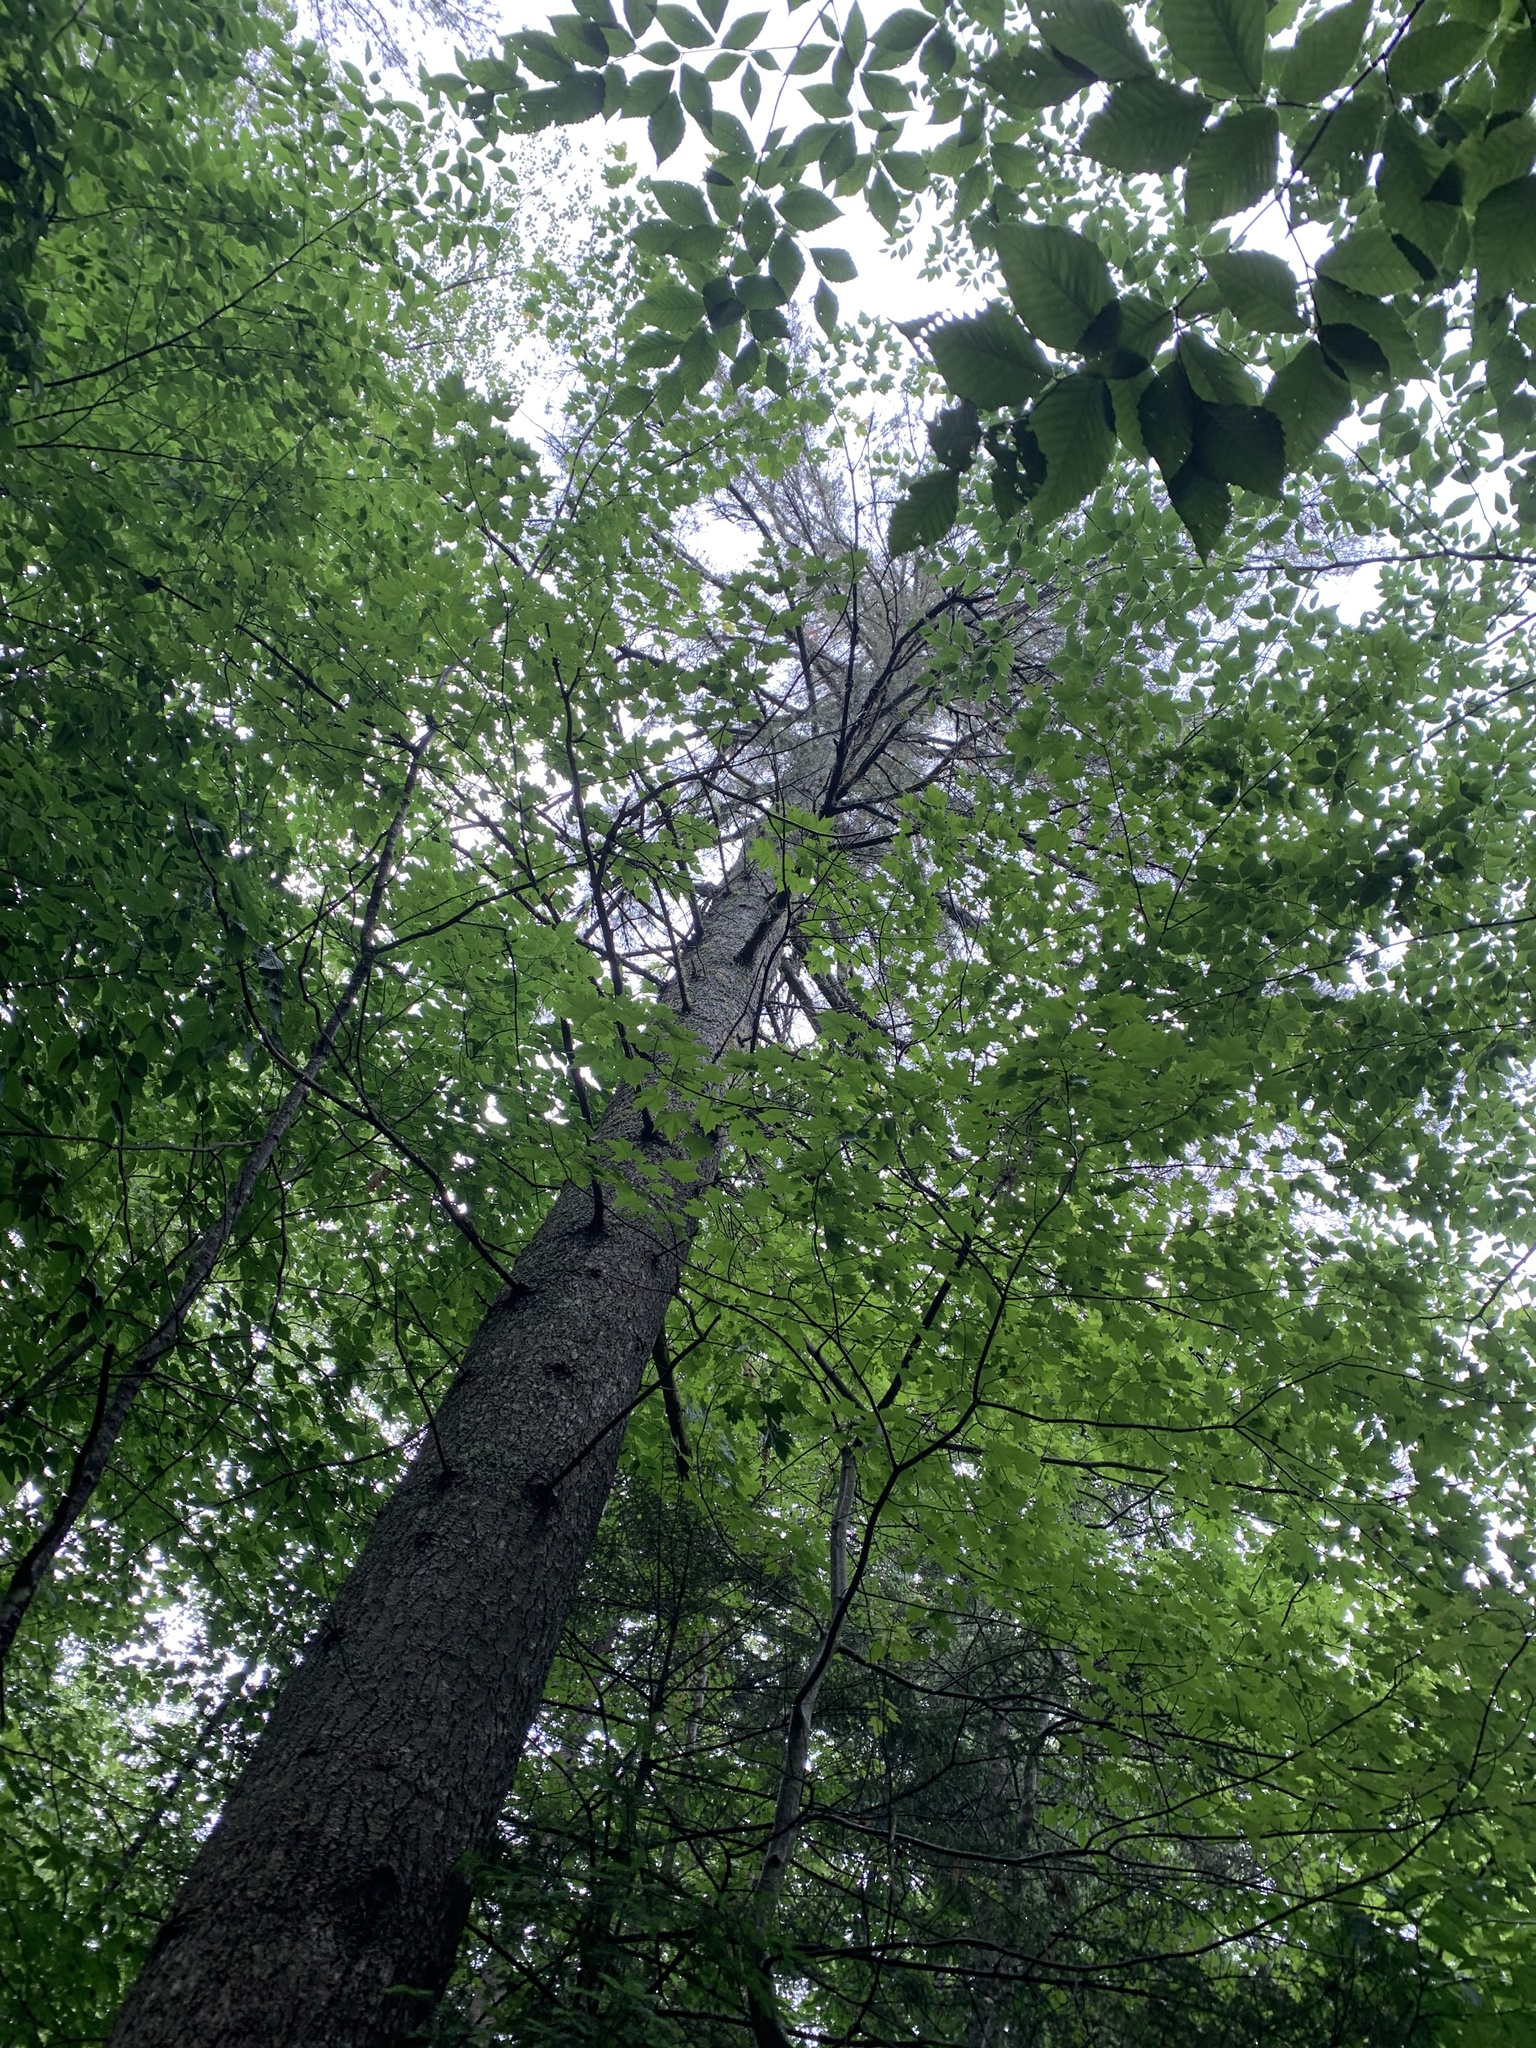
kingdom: Plantae
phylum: Tracheophyta
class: Pinopsida
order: Pinales
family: Pinaceae
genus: Pinus
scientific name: Pinus strobus
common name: Weymouth pine
